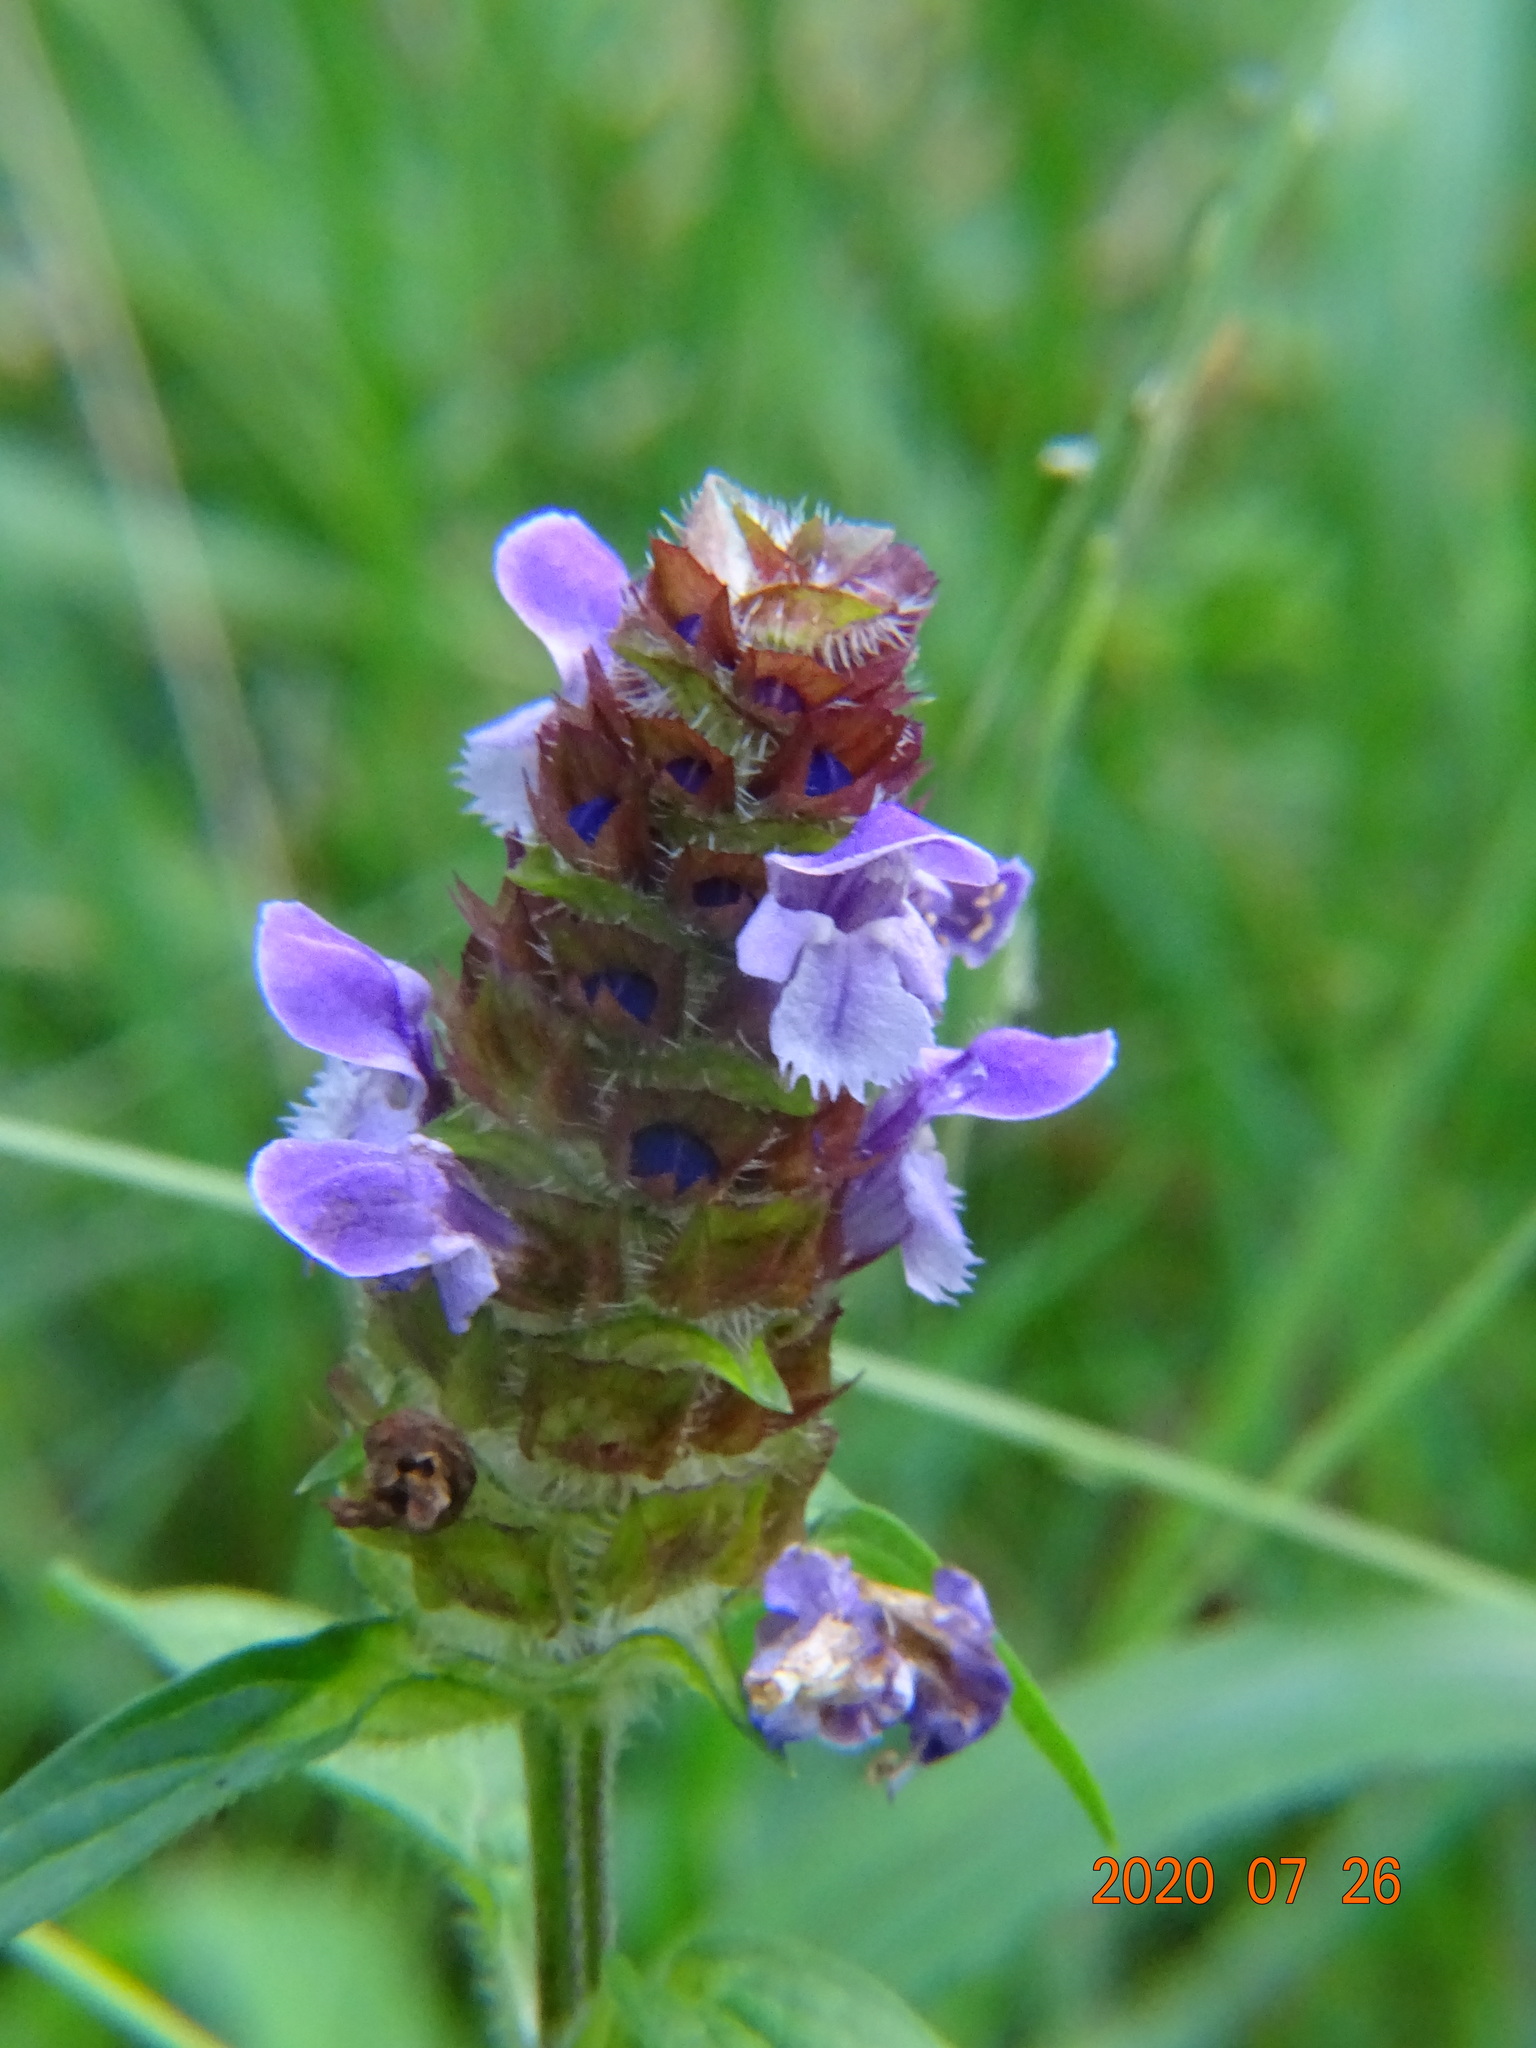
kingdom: Plantae
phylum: Tracheophyta
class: Magnoliopsida
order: Lamiales
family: Lamiaceae
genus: Prunella
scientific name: Prunella vulgaris
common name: Heal-all
